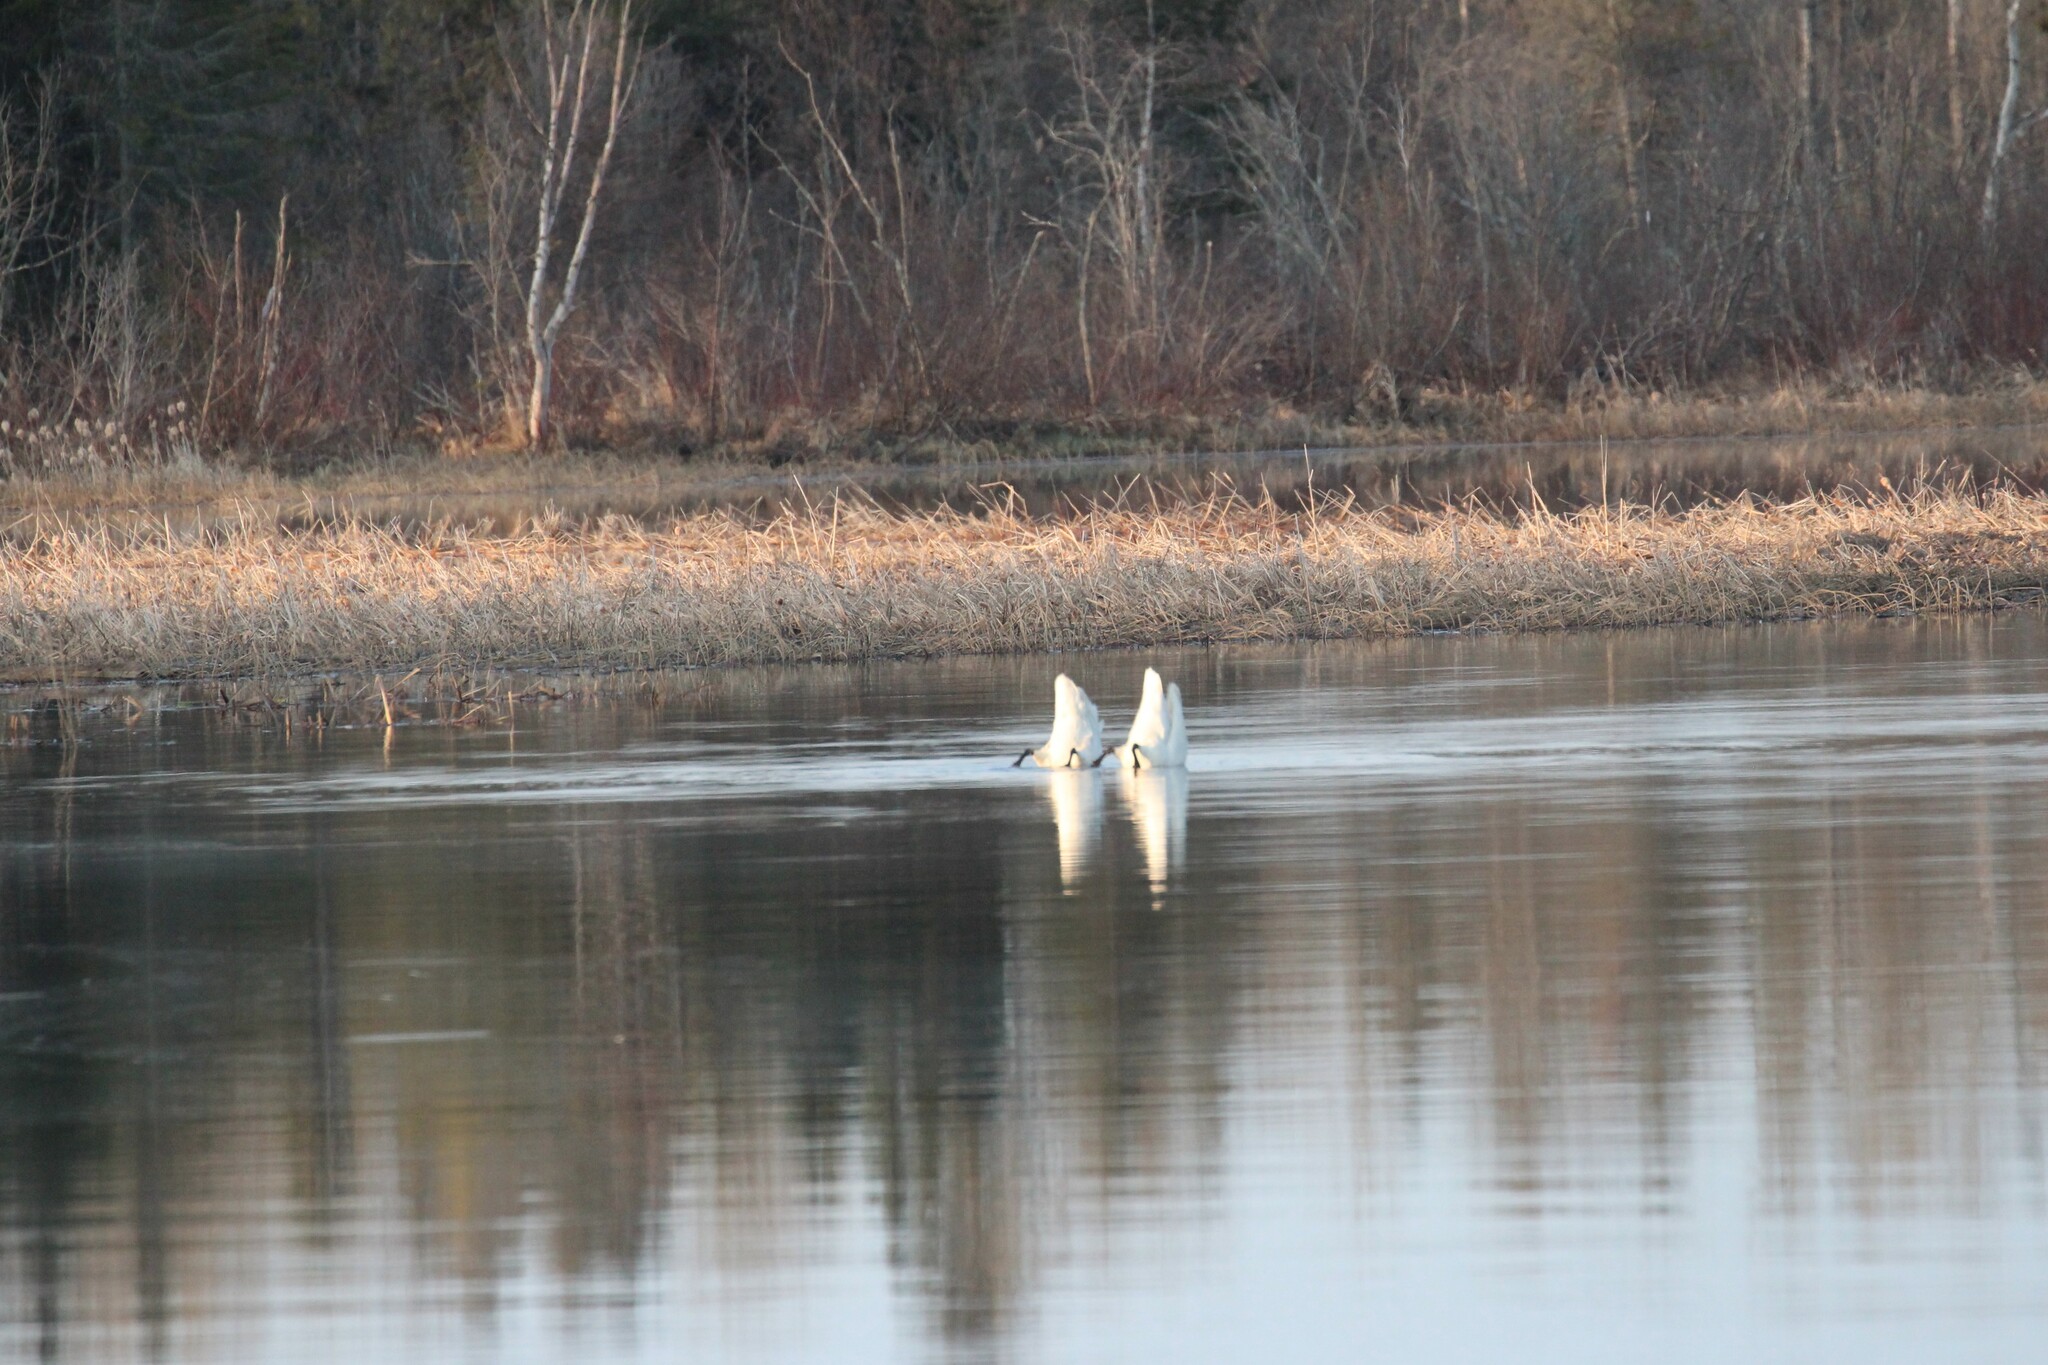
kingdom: Animalia
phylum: Chordata
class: Aves
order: Anseriformes
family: Anatidae
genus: Cygnus
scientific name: Cygnus buccinator
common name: Trumpeter swan
